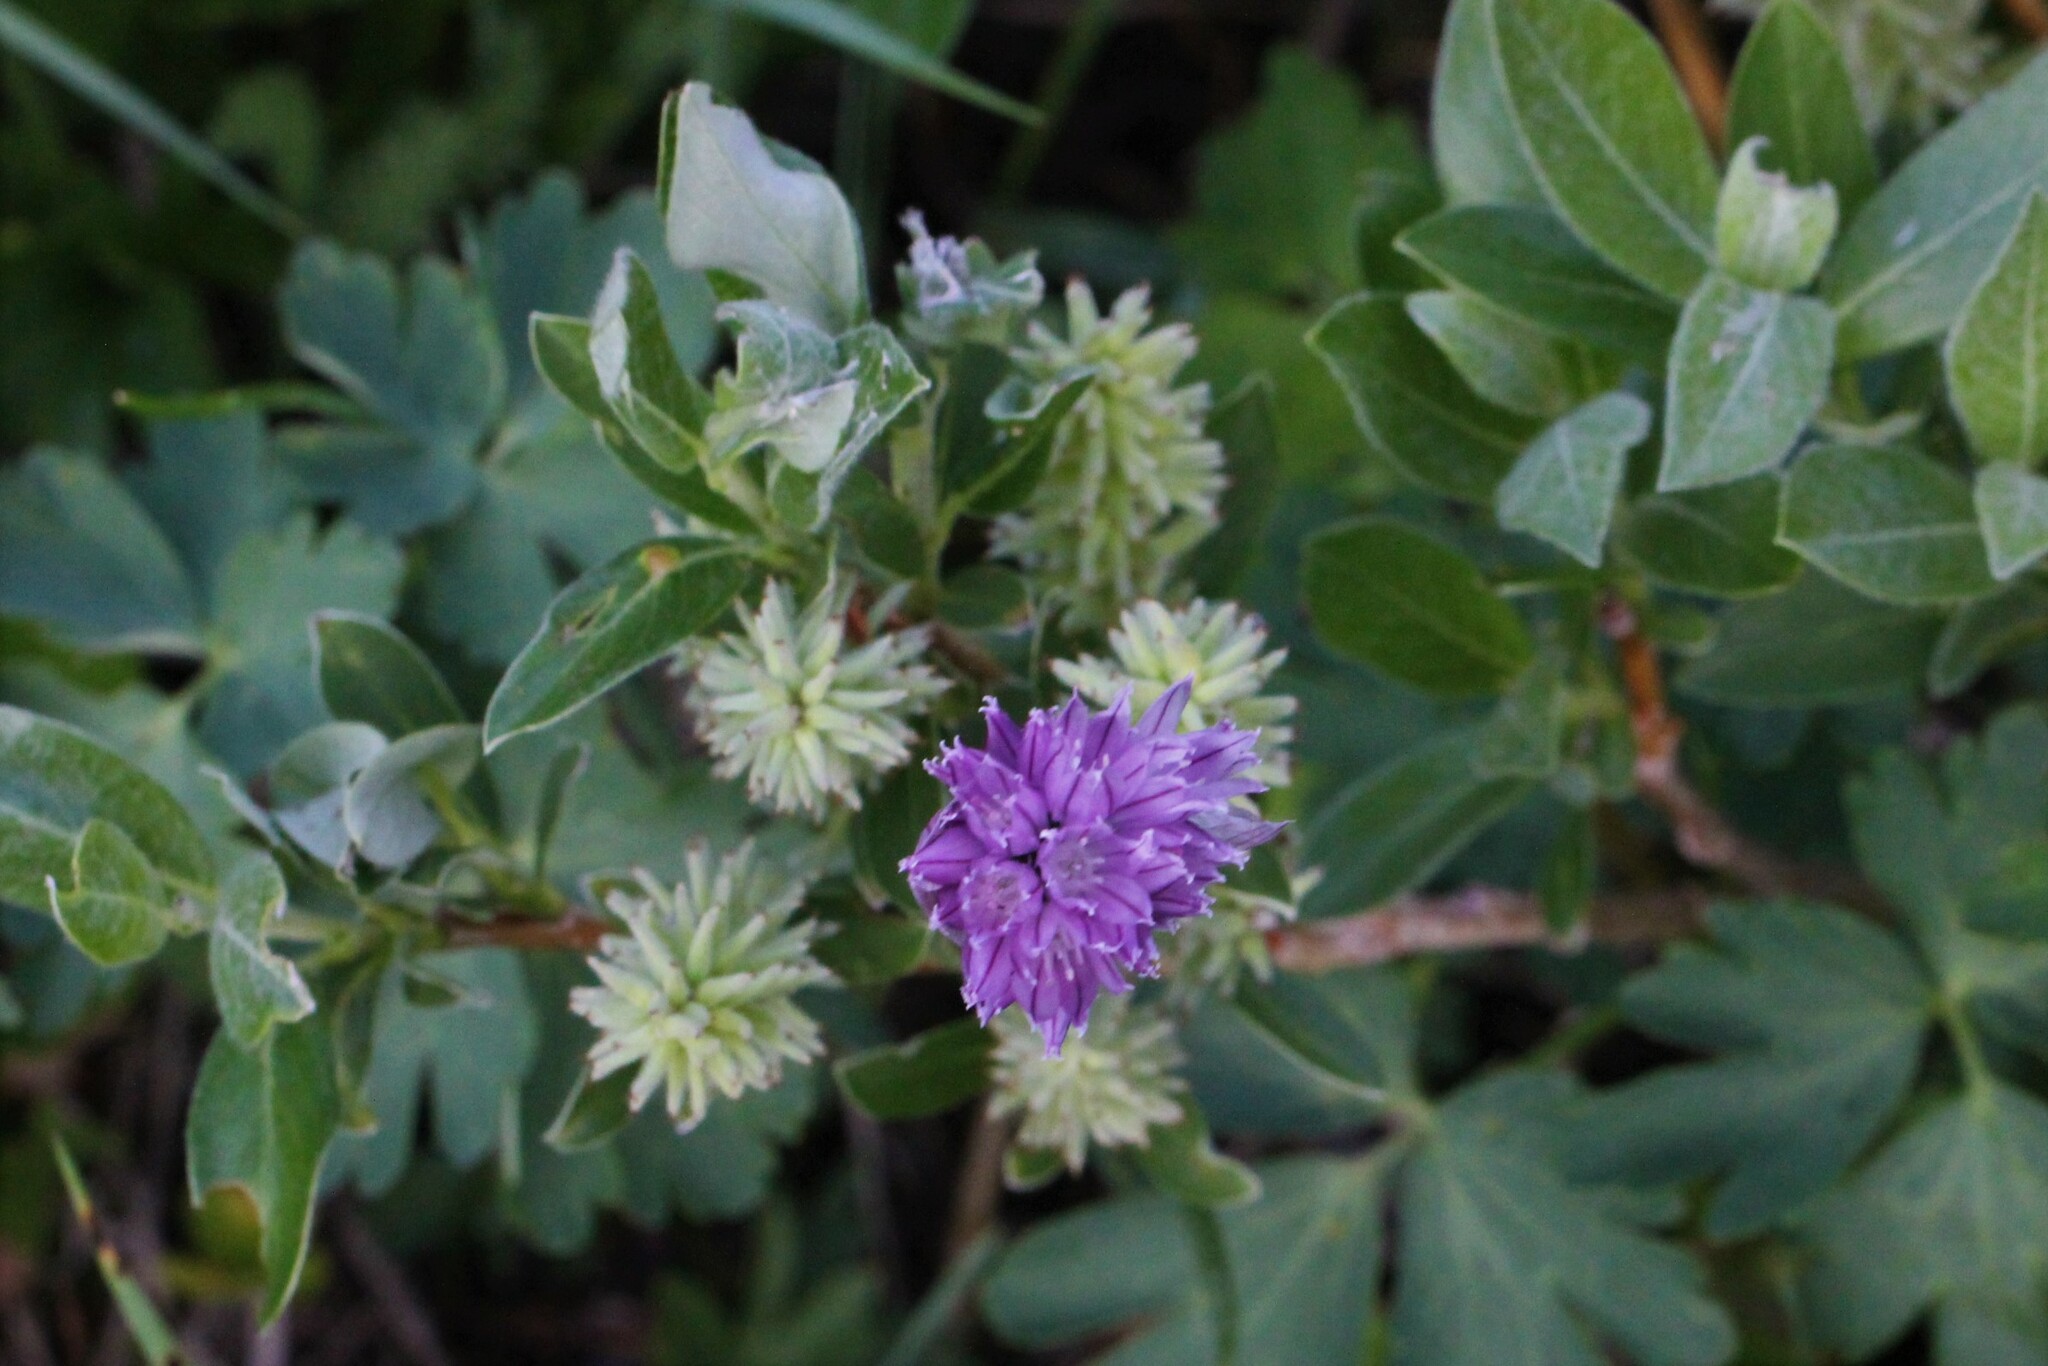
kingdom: Plantae
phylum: Tracheophyta
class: Liliopsida
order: Asparagales
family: Amaryllidaceae
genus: Allium
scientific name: Allium schoenoprasum
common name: Chives
